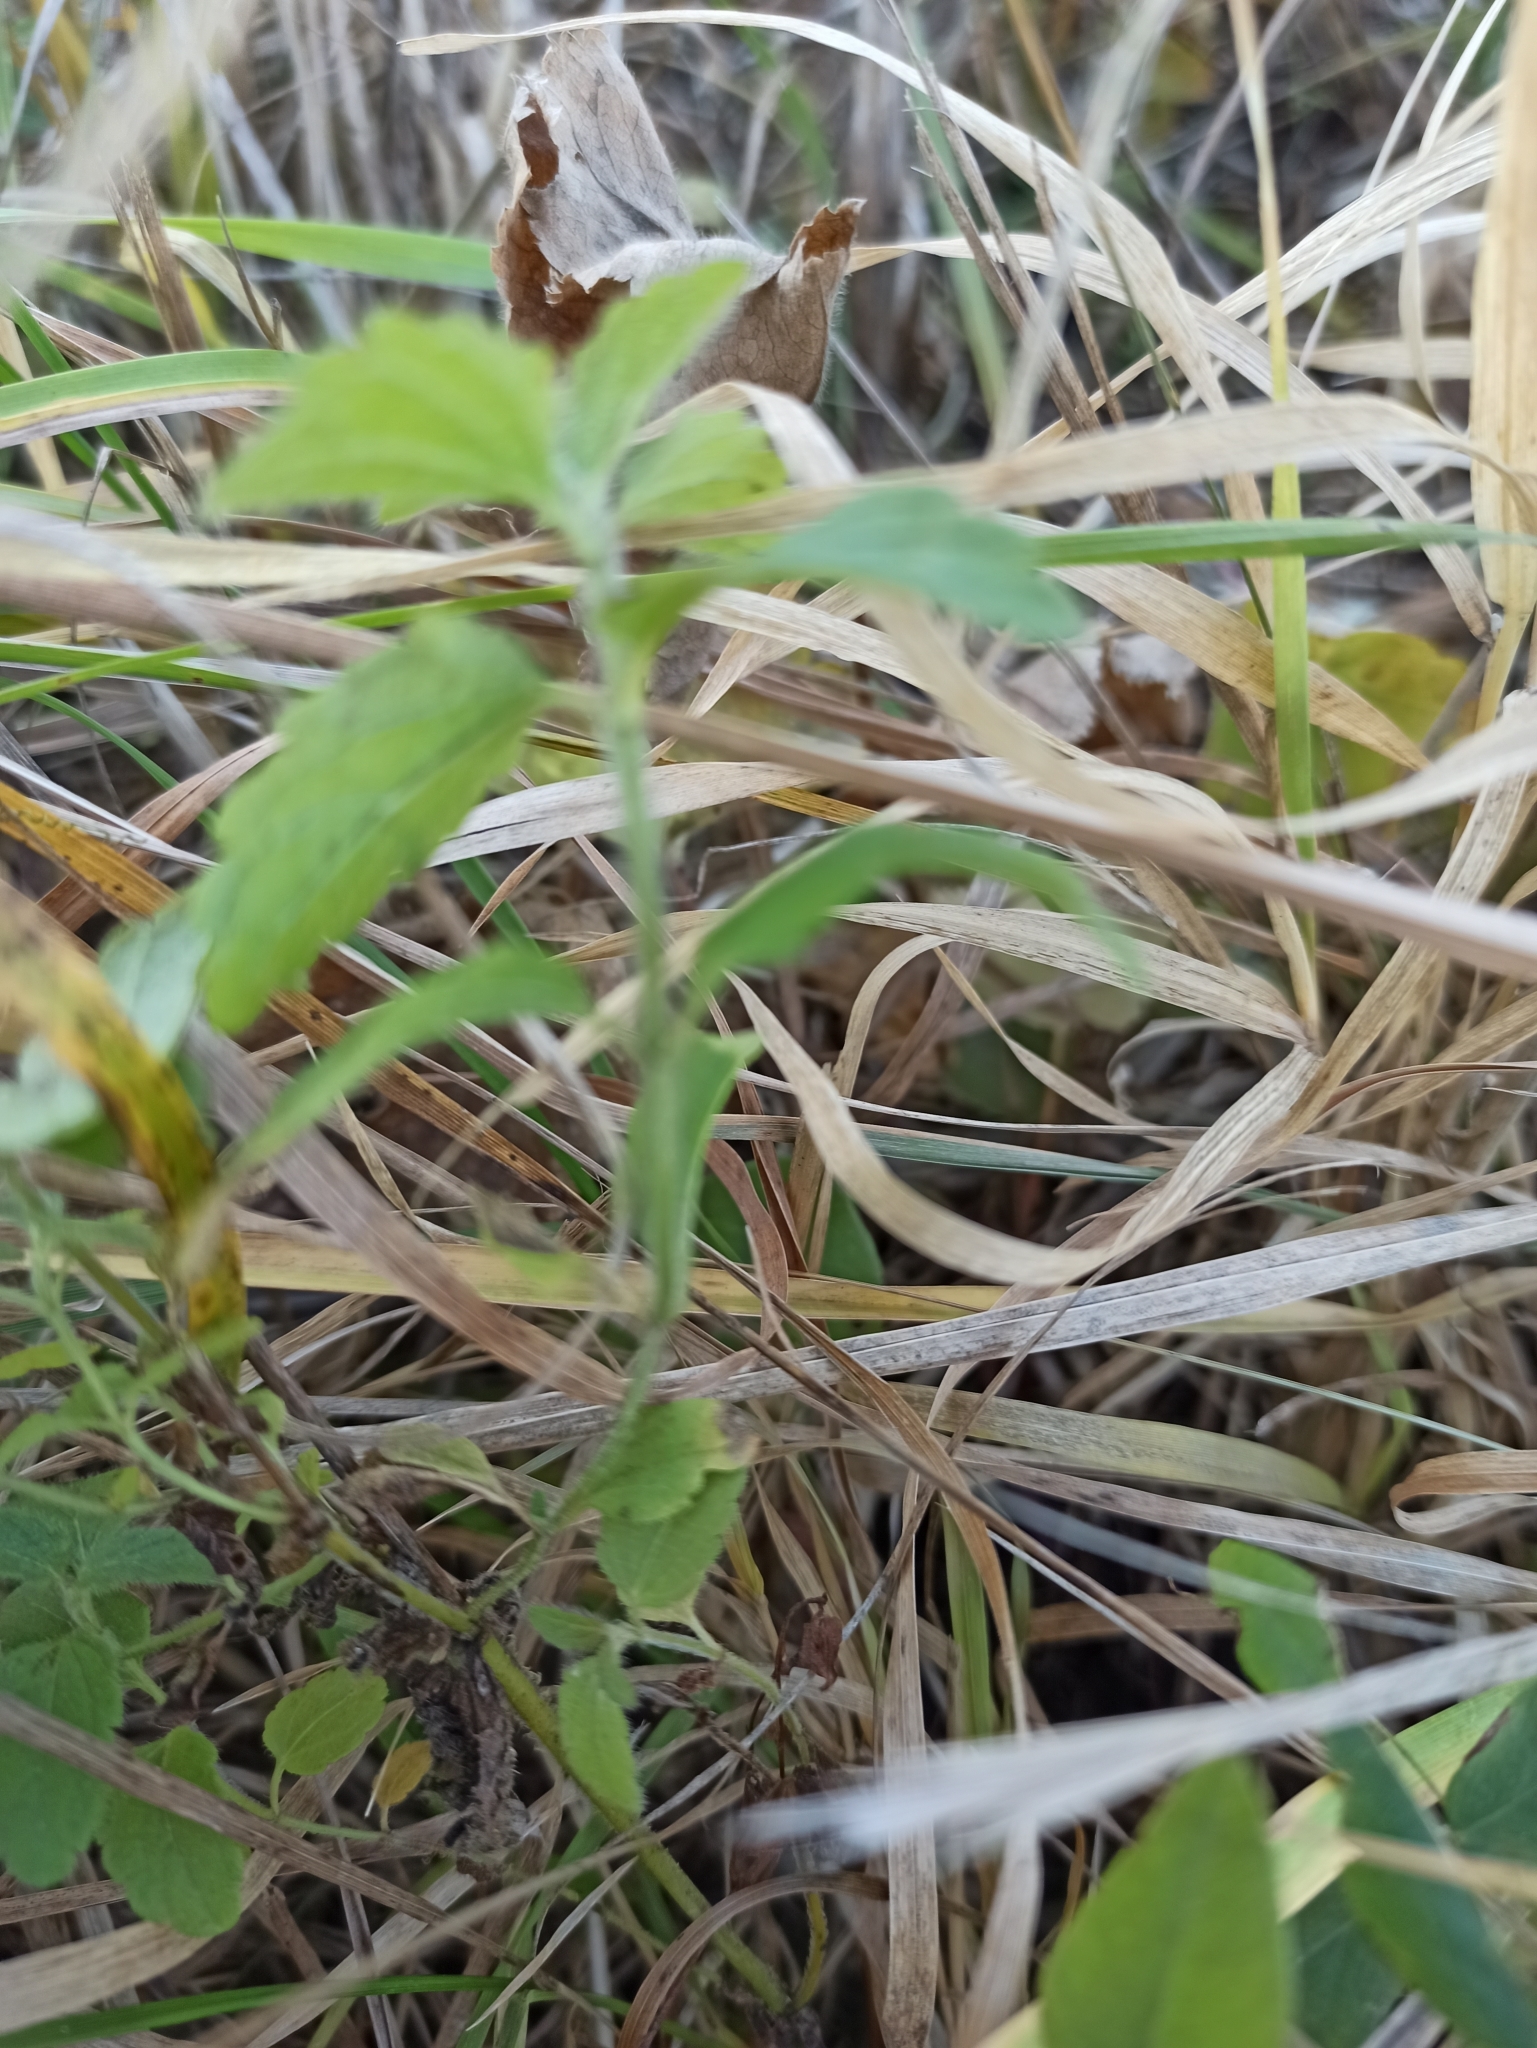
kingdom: Plantae
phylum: Tracheophyta
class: Magnoliopsida
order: Lamiales
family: Plantaginaceae
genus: Veronica
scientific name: Veronica chamaedrys
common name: Germander speedwell
